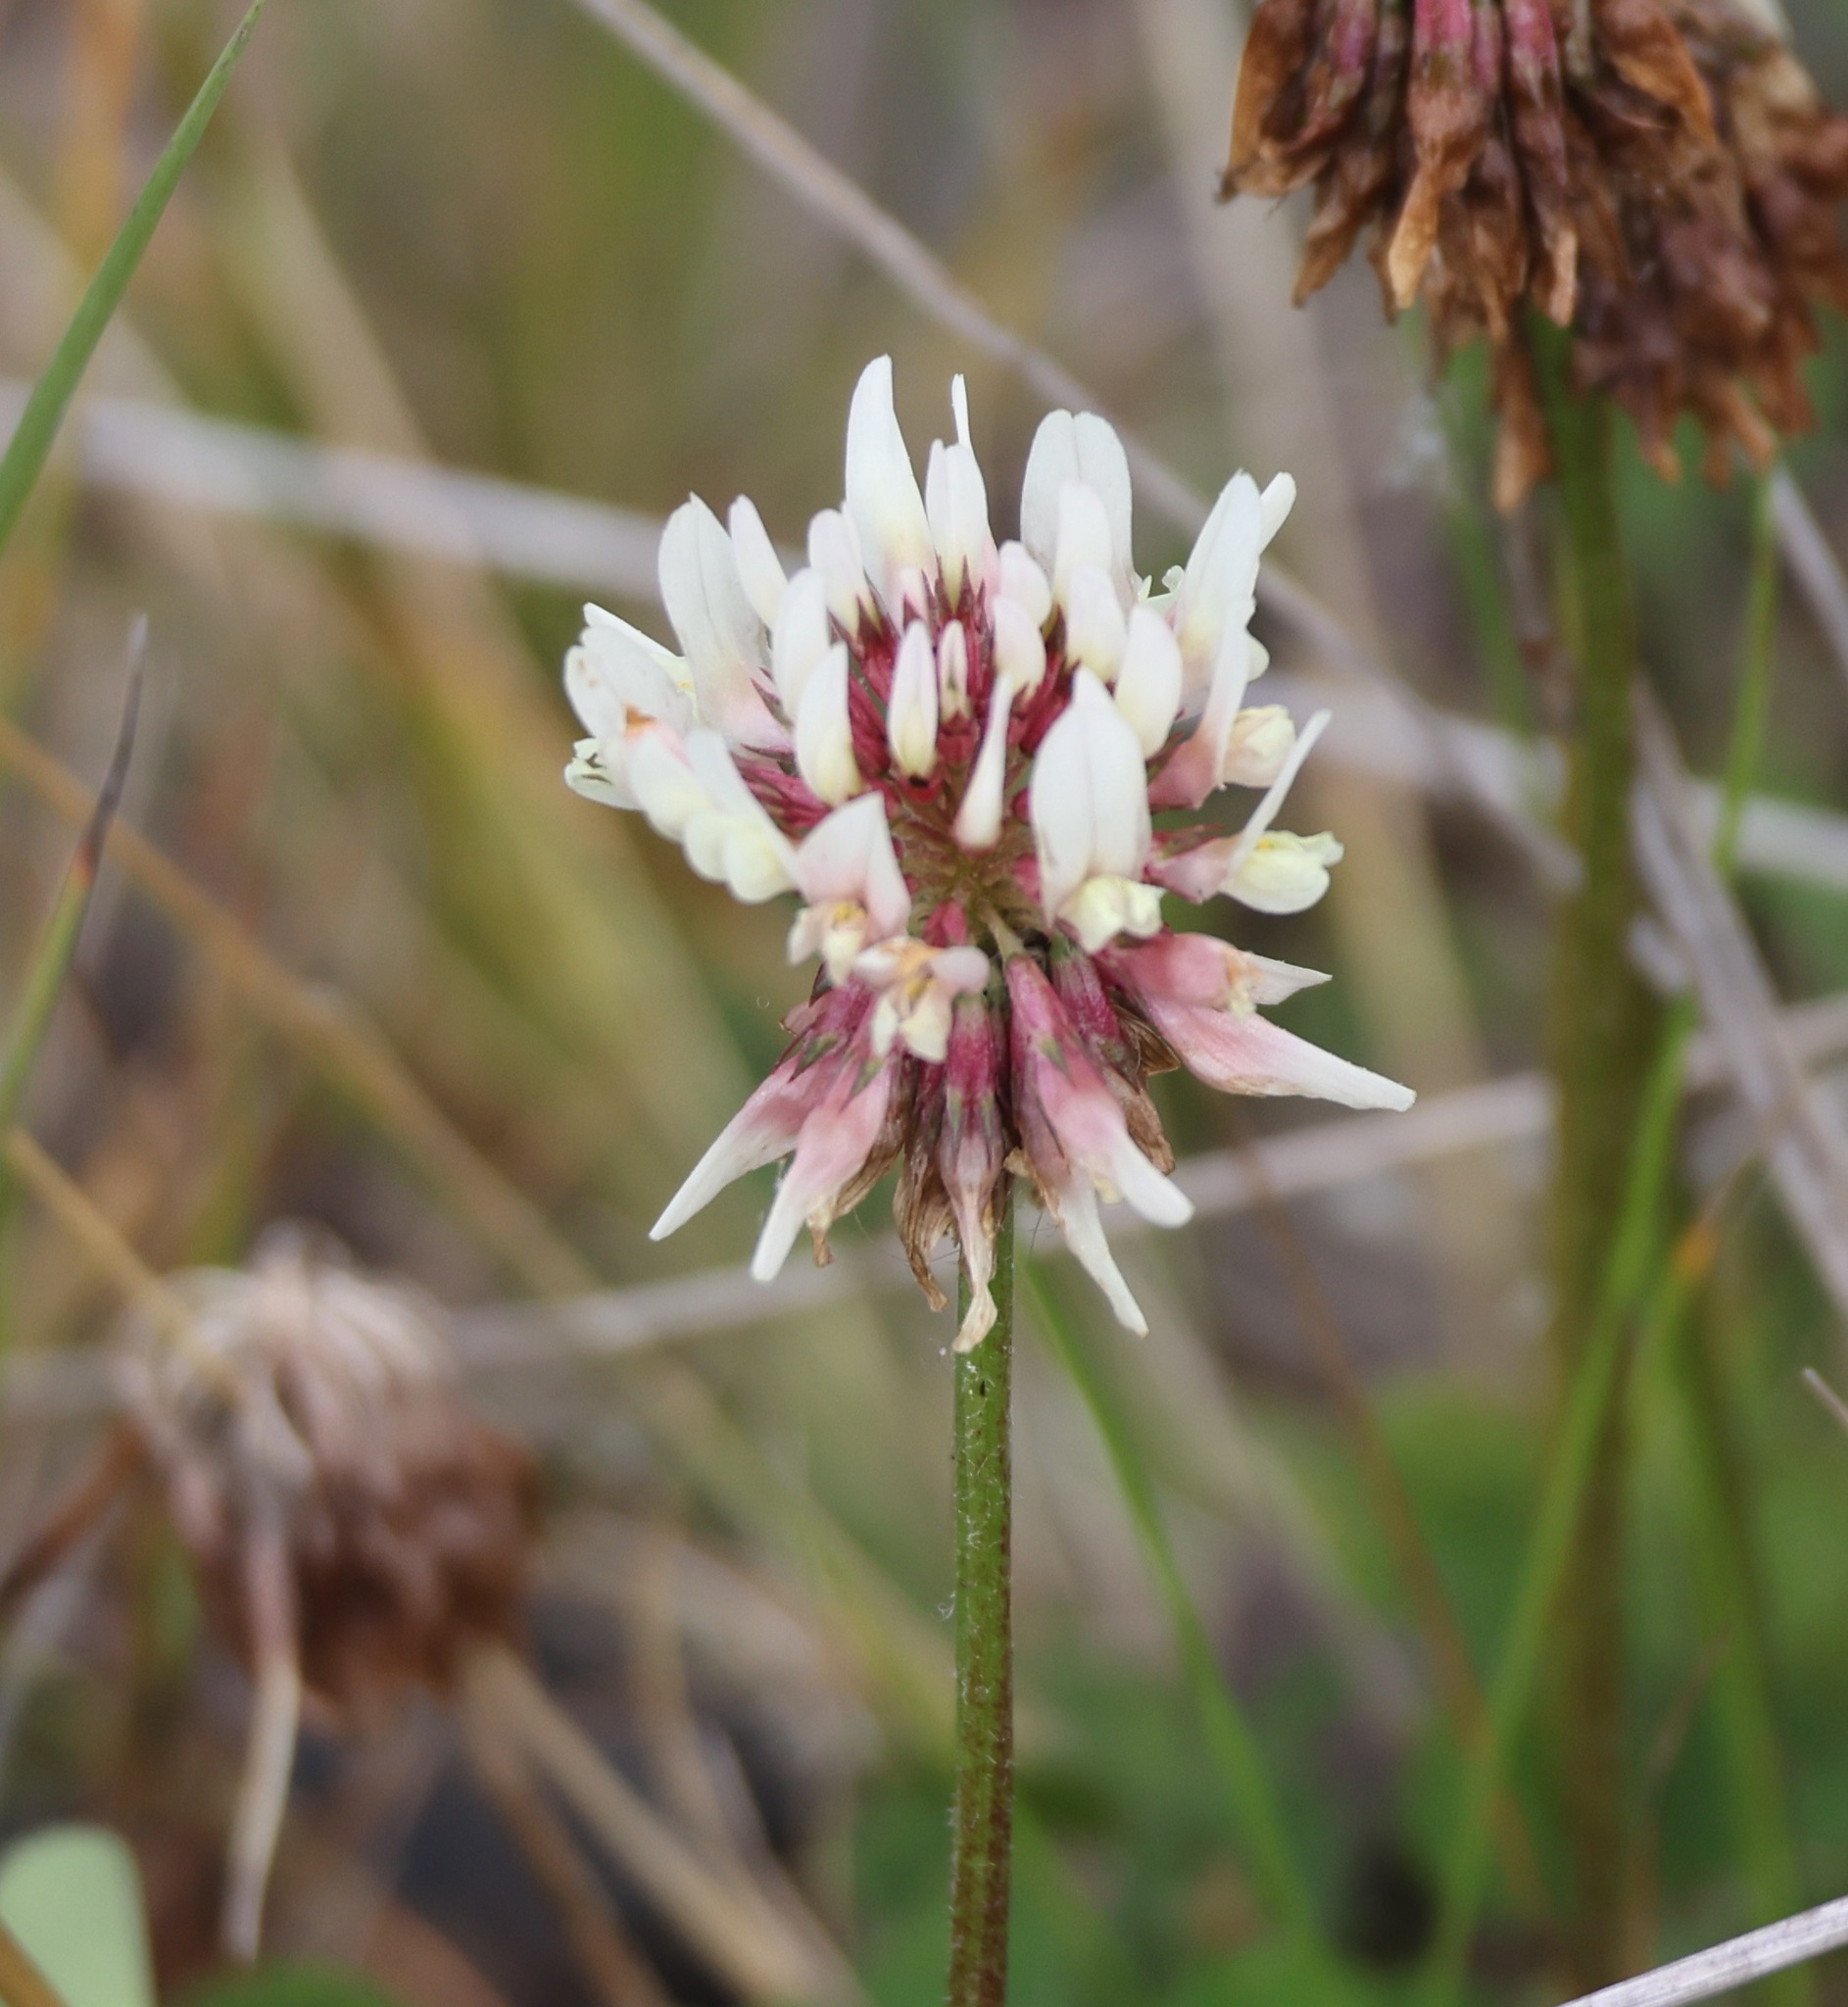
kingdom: Plantae
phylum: Tracheophyta
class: Magnoliopsida
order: Fabales
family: Fabaceae
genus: Trifolium
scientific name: Trifolium repens
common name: White clover
